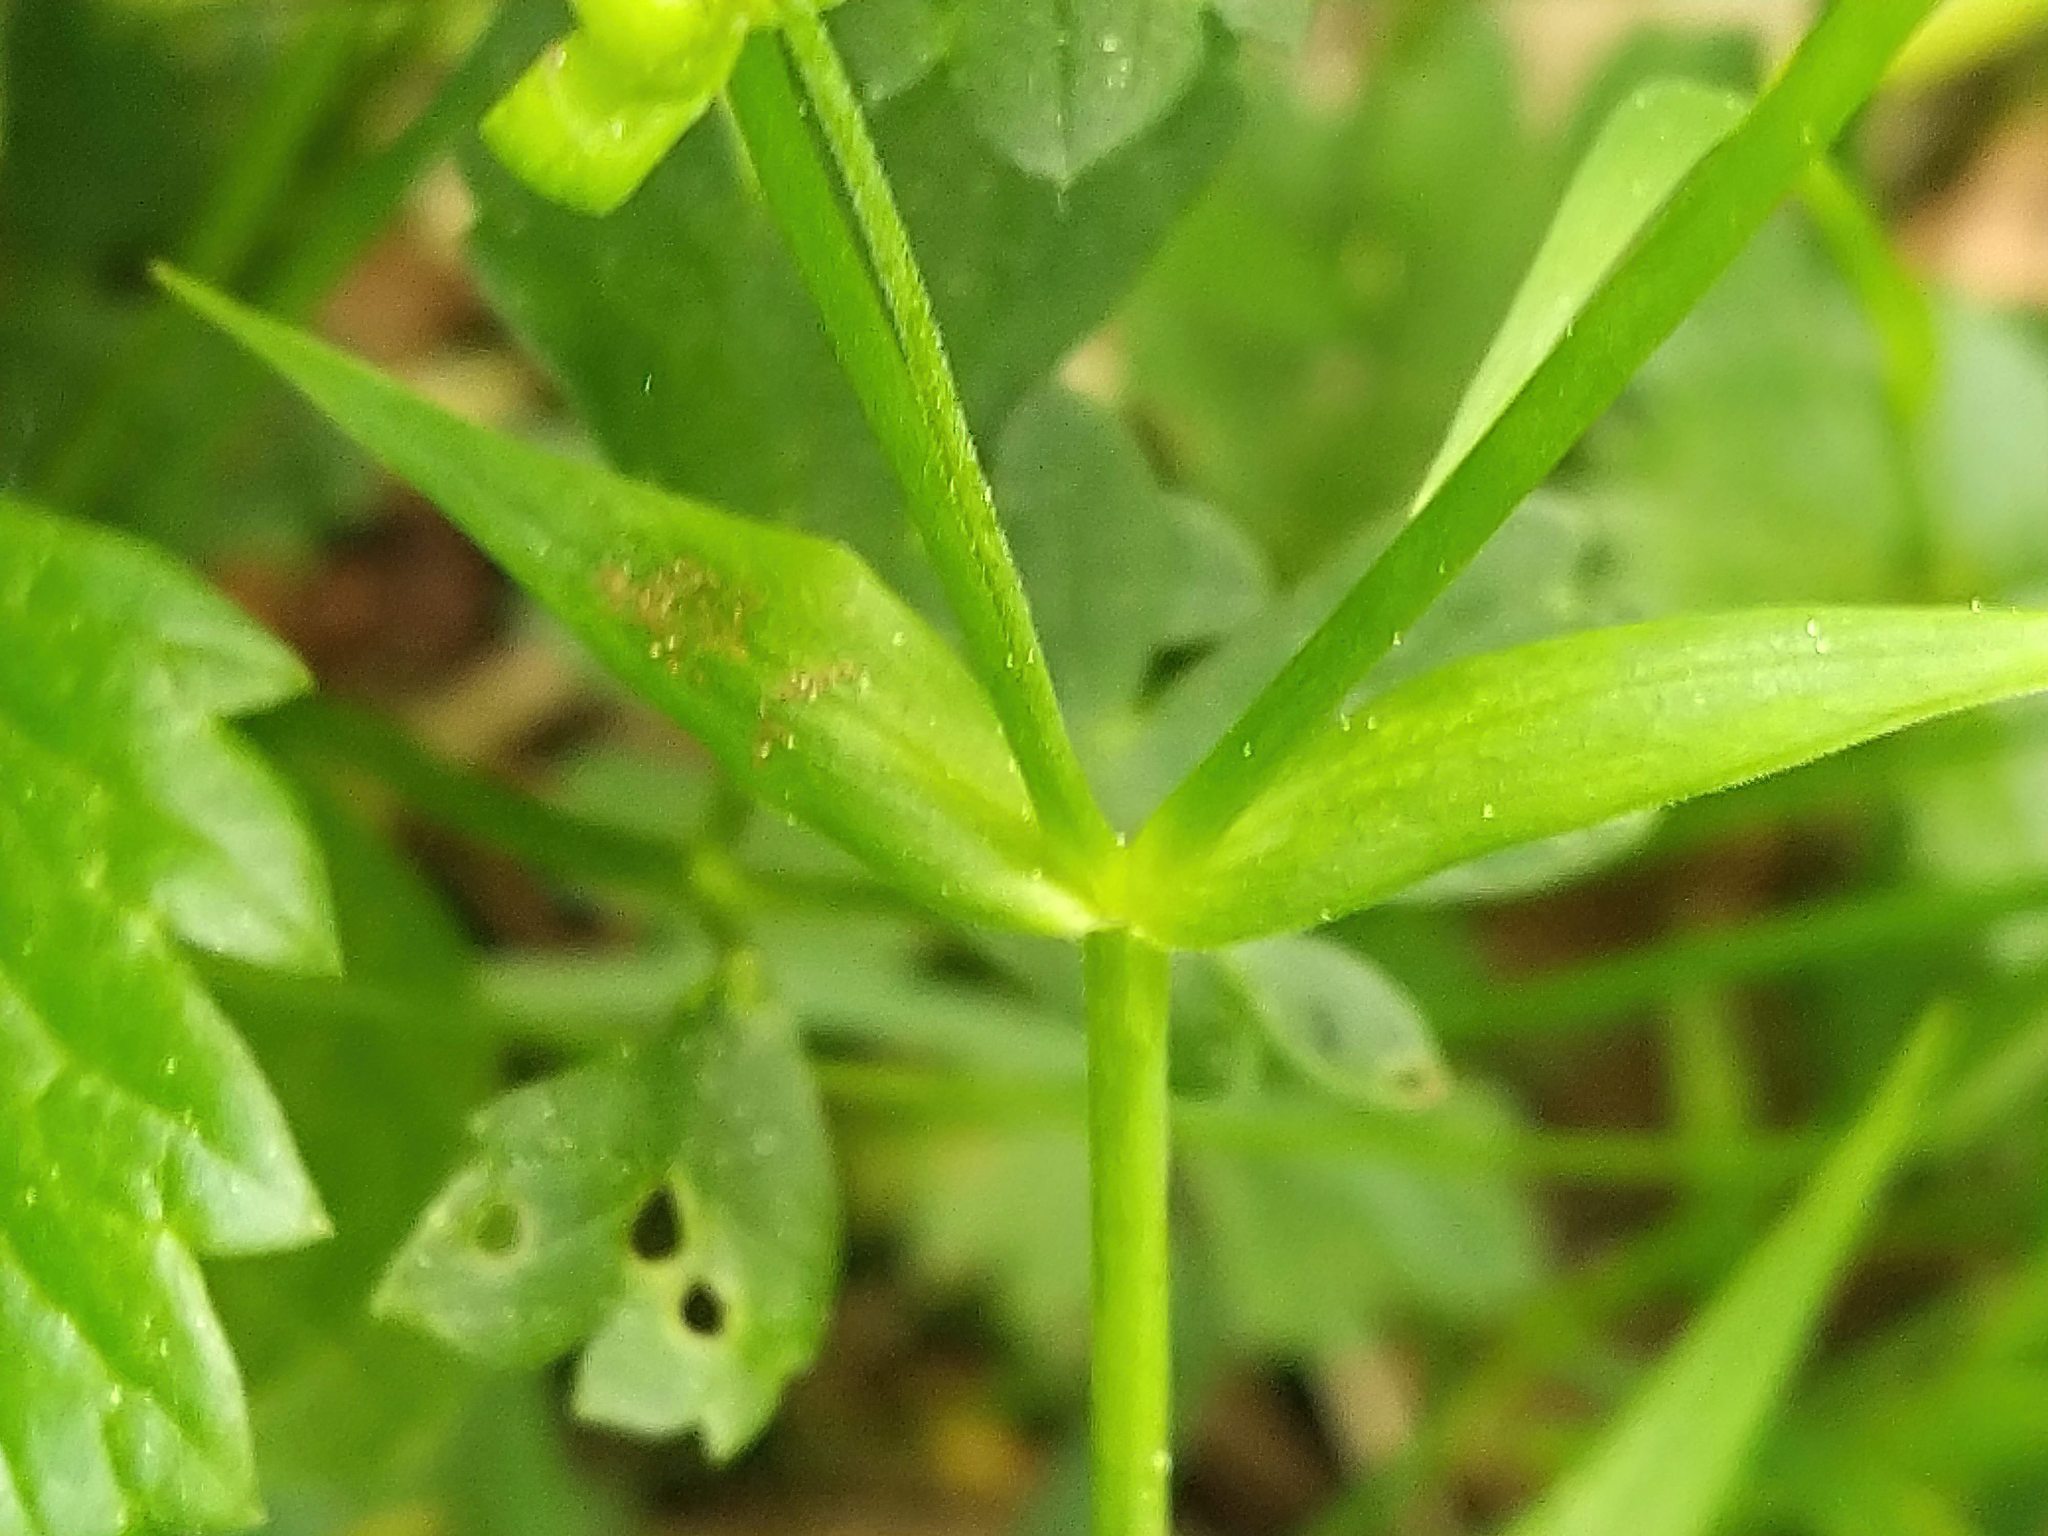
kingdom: Plantae
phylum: Tracheophyta
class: Magnoliopsida
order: Caryophyllales
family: Caryophyllaceae
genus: Rabelera
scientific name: Rabelera holostea
